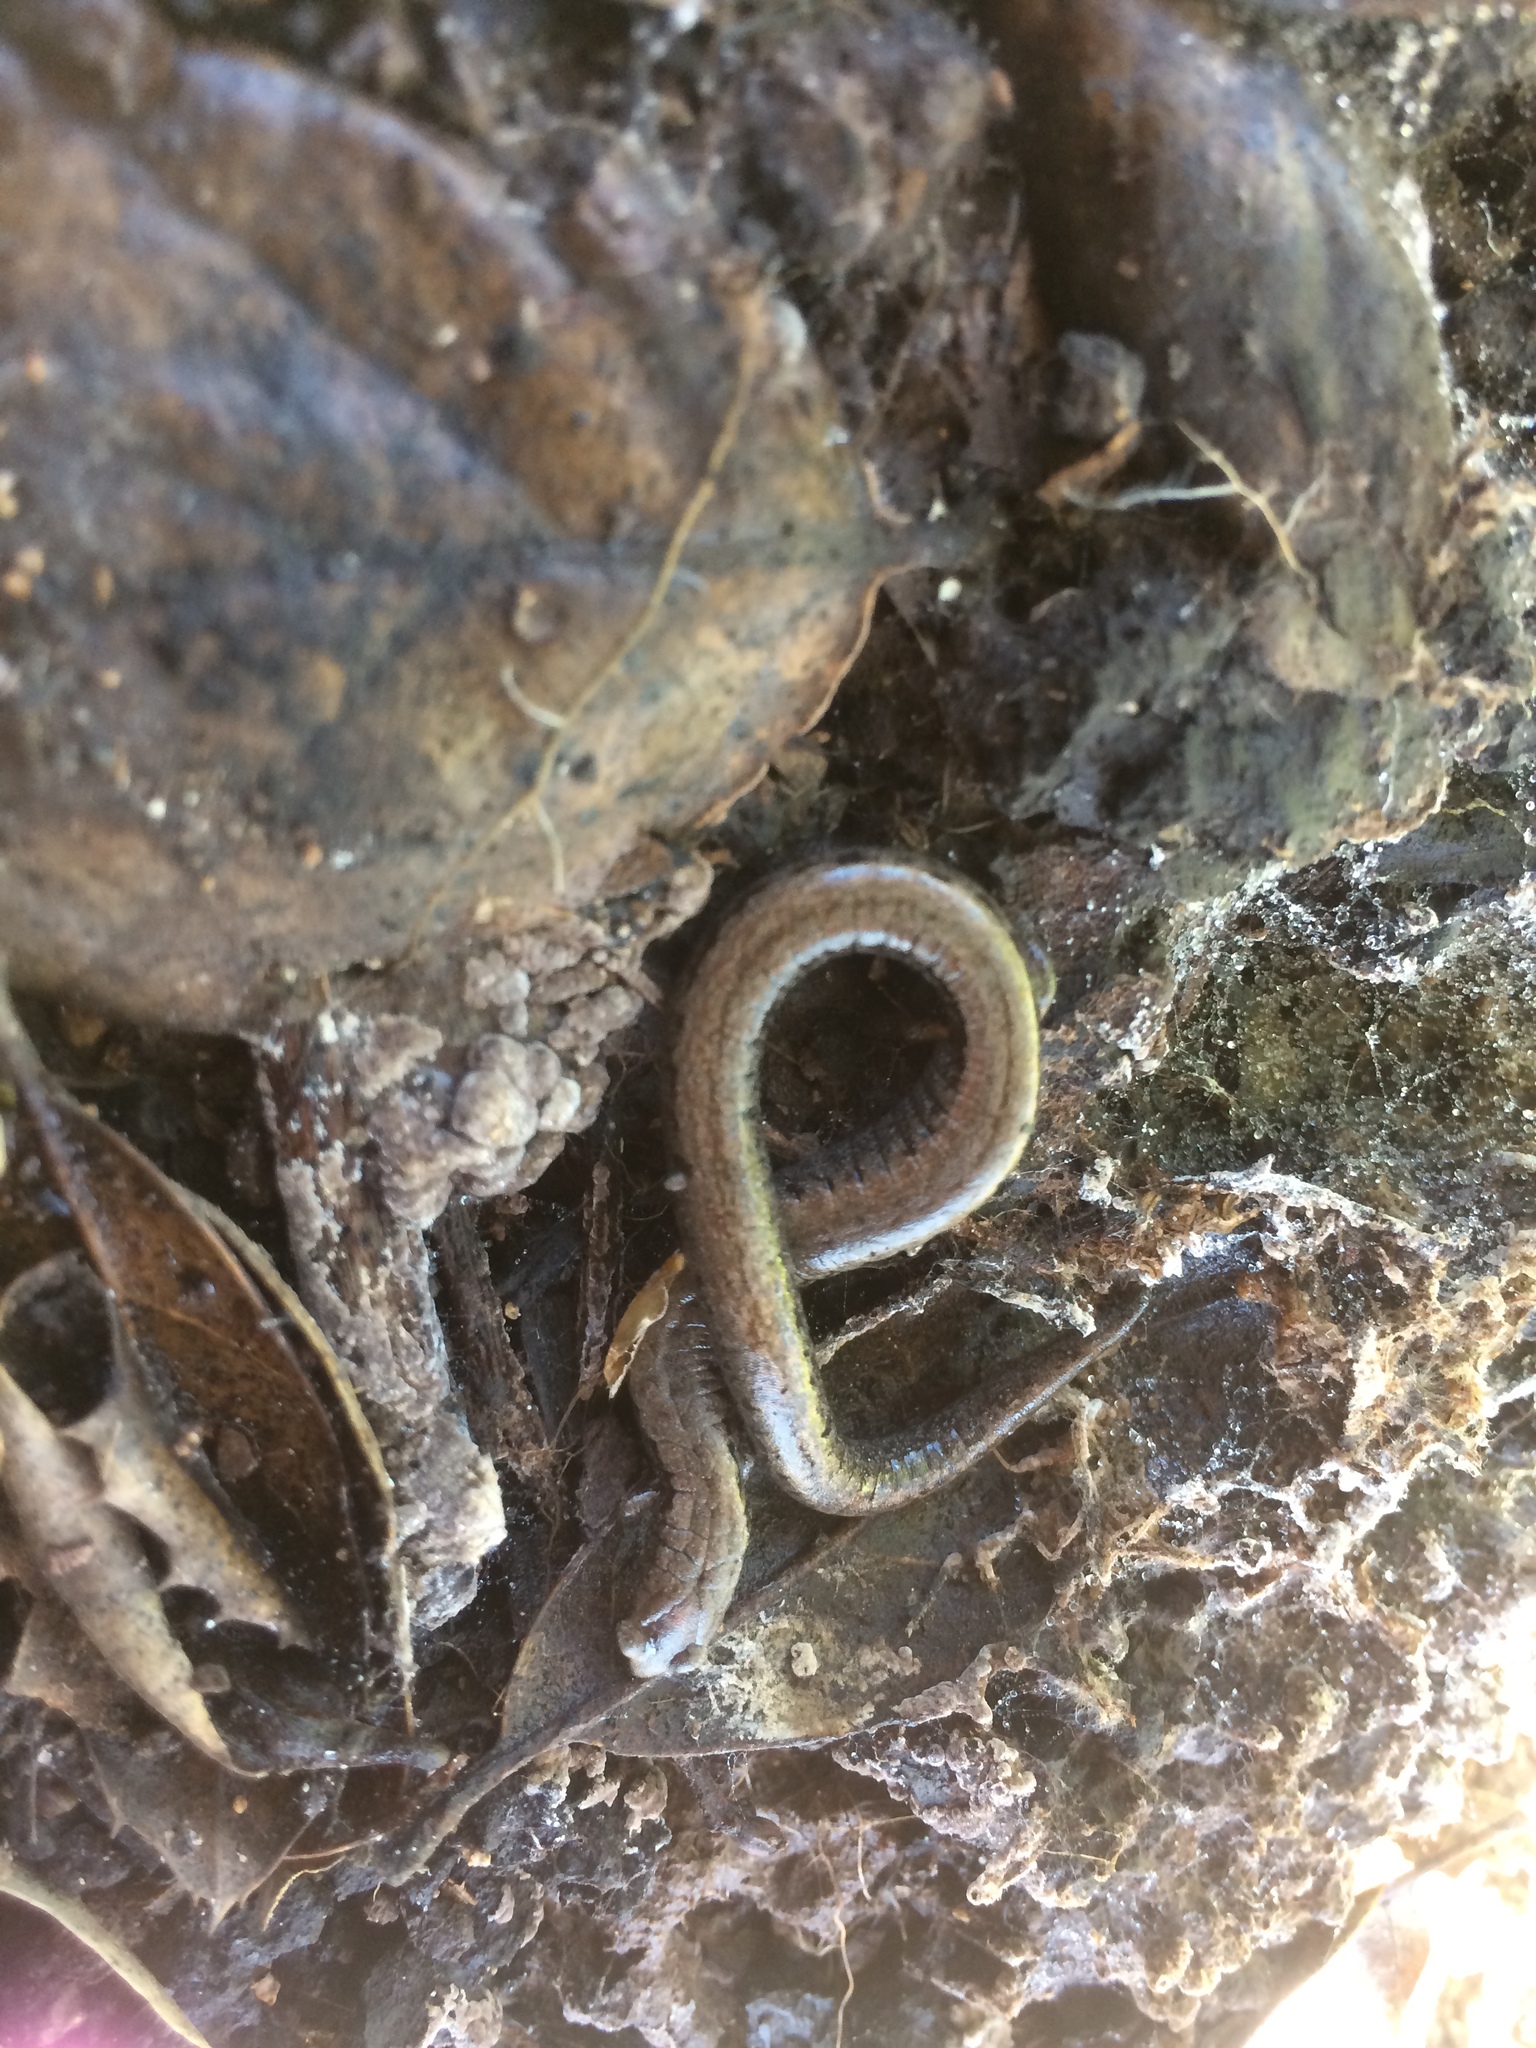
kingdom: Animalia
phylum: Chordata
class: Amphibia
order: Caudata
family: Plethodontidae
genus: Batrachoseps
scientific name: Batrachoseps attenuatus
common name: California slender salamander
